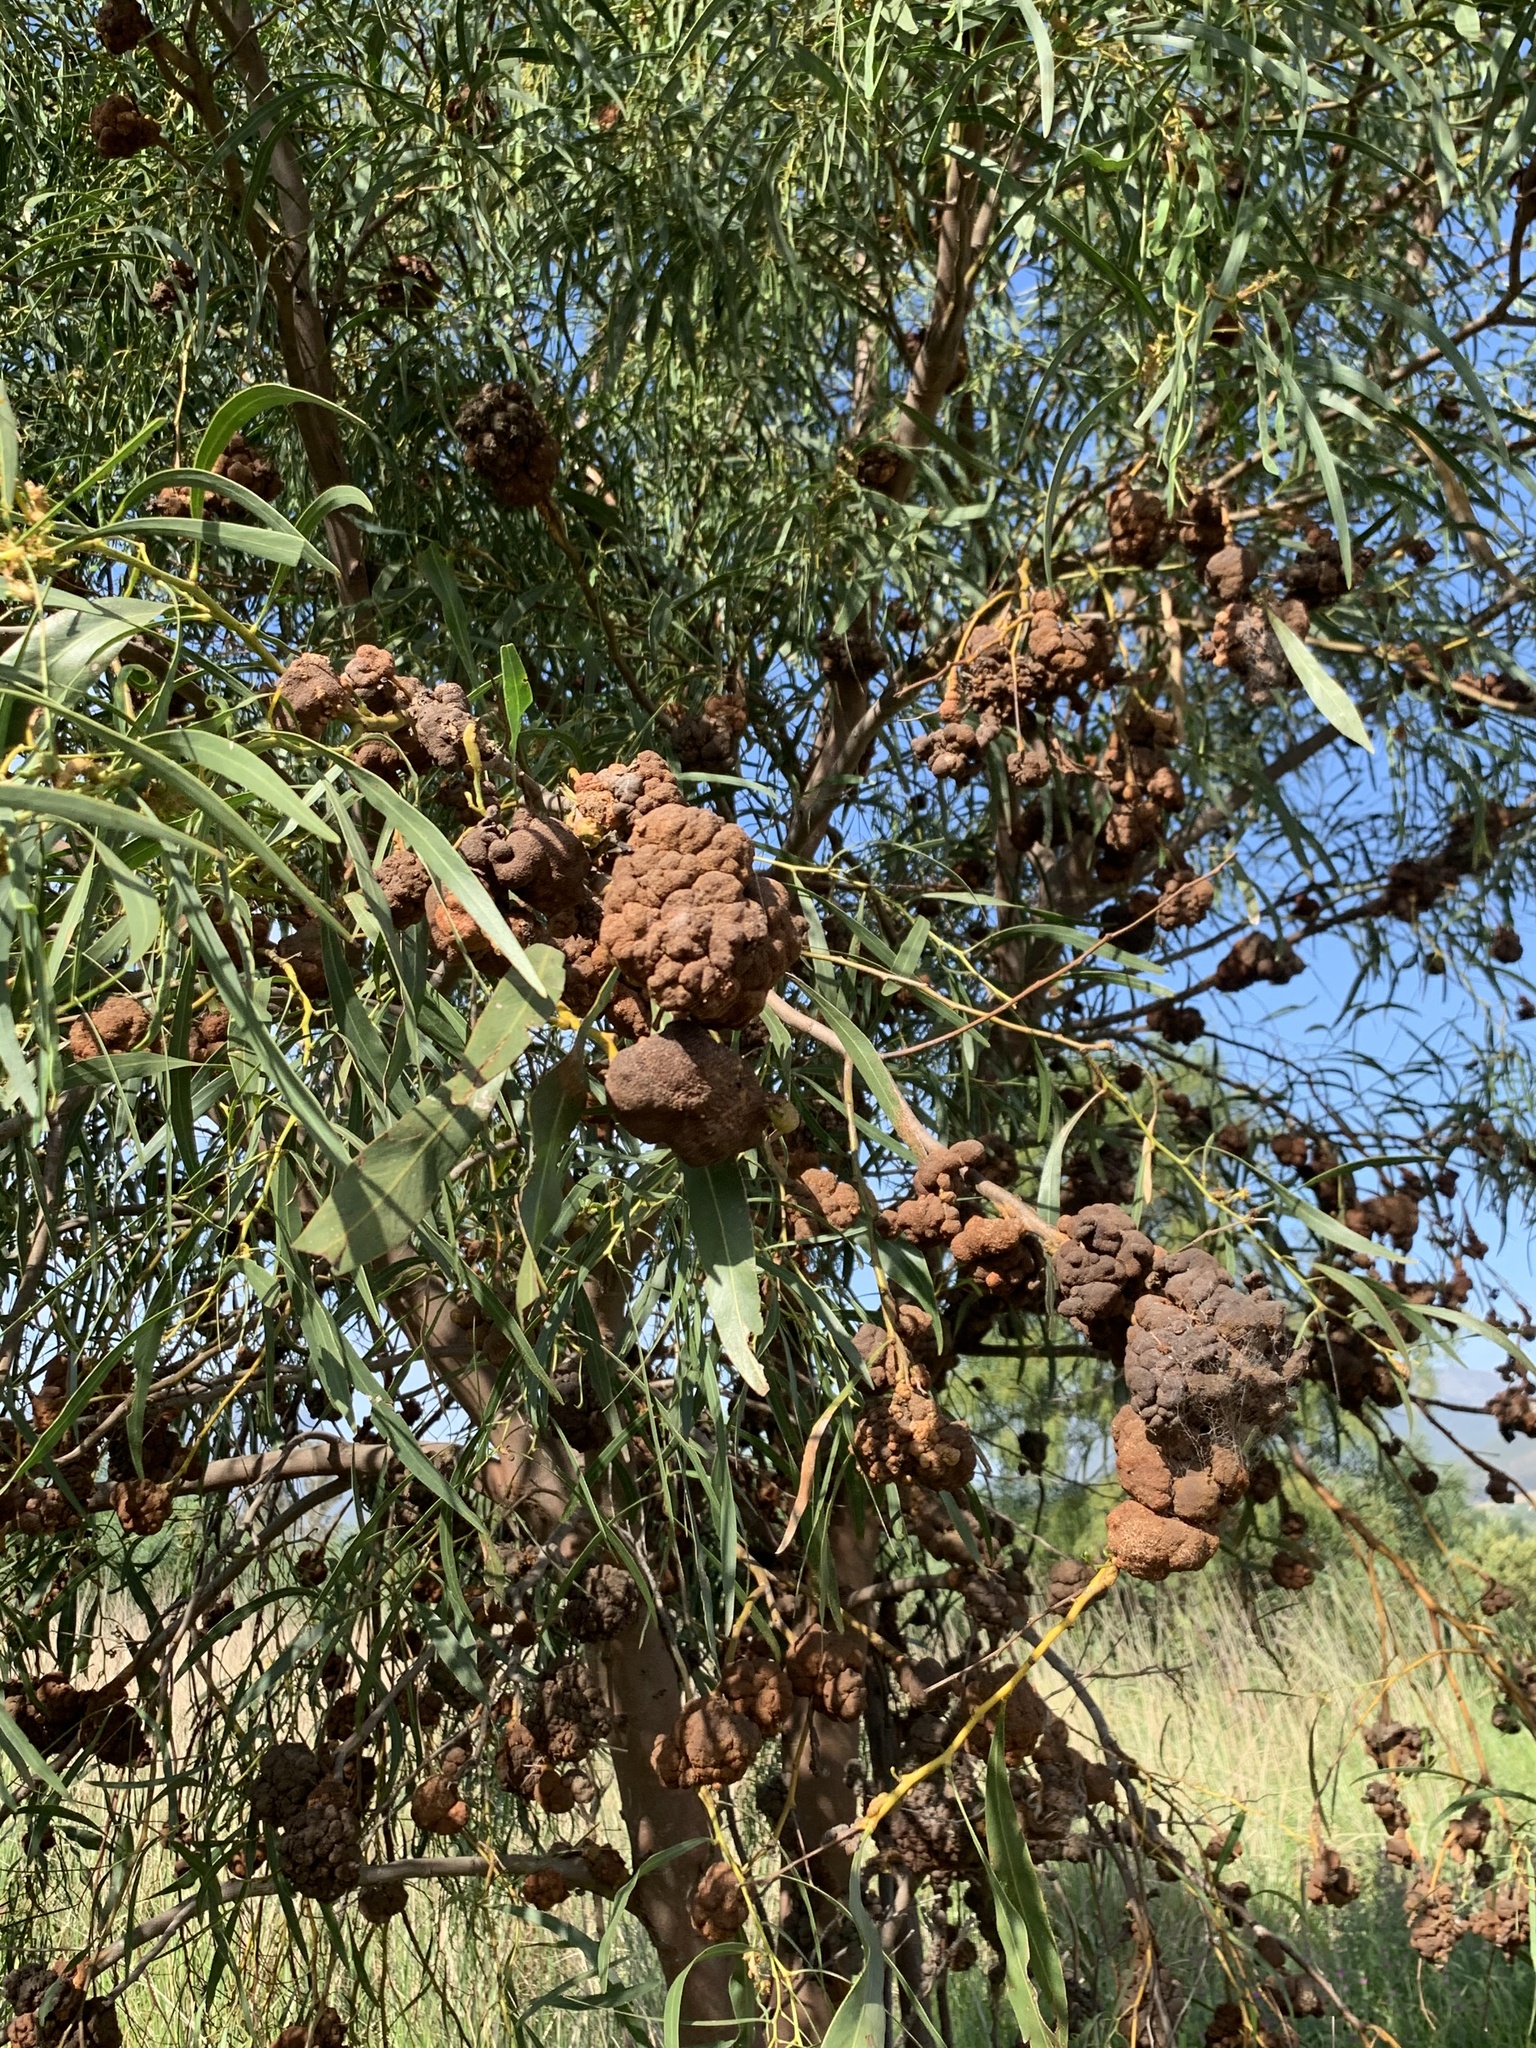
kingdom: Plantae
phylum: Tracheophyta
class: Magnoliopsida
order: Fabales
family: Fabaceae
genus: Acacia
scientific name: Acacia saligna
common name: Orange wattle
